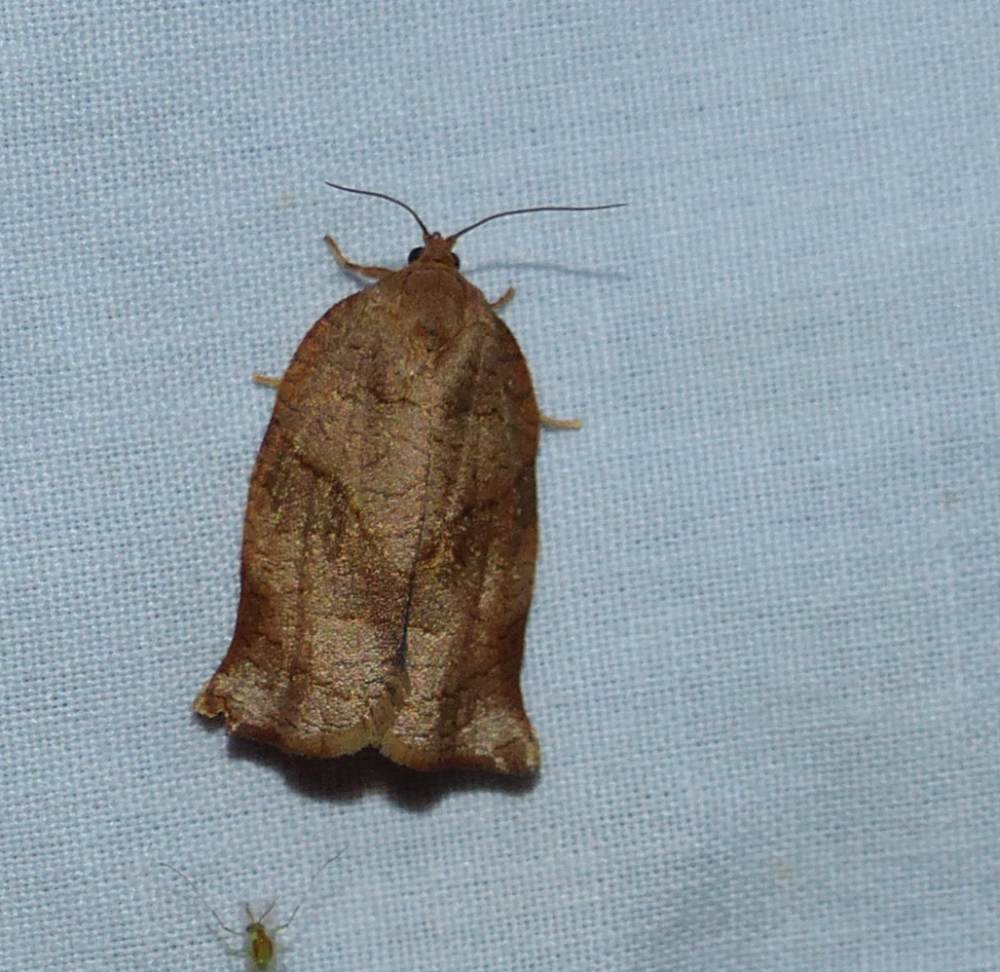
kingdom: Animalia
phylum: Arthropoda
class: Insecta
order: Lepidoptera
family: Tortricidae
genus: Choristoneura
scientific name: Choristoneura rosaceana
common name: Oblique-banded leafroller moth
